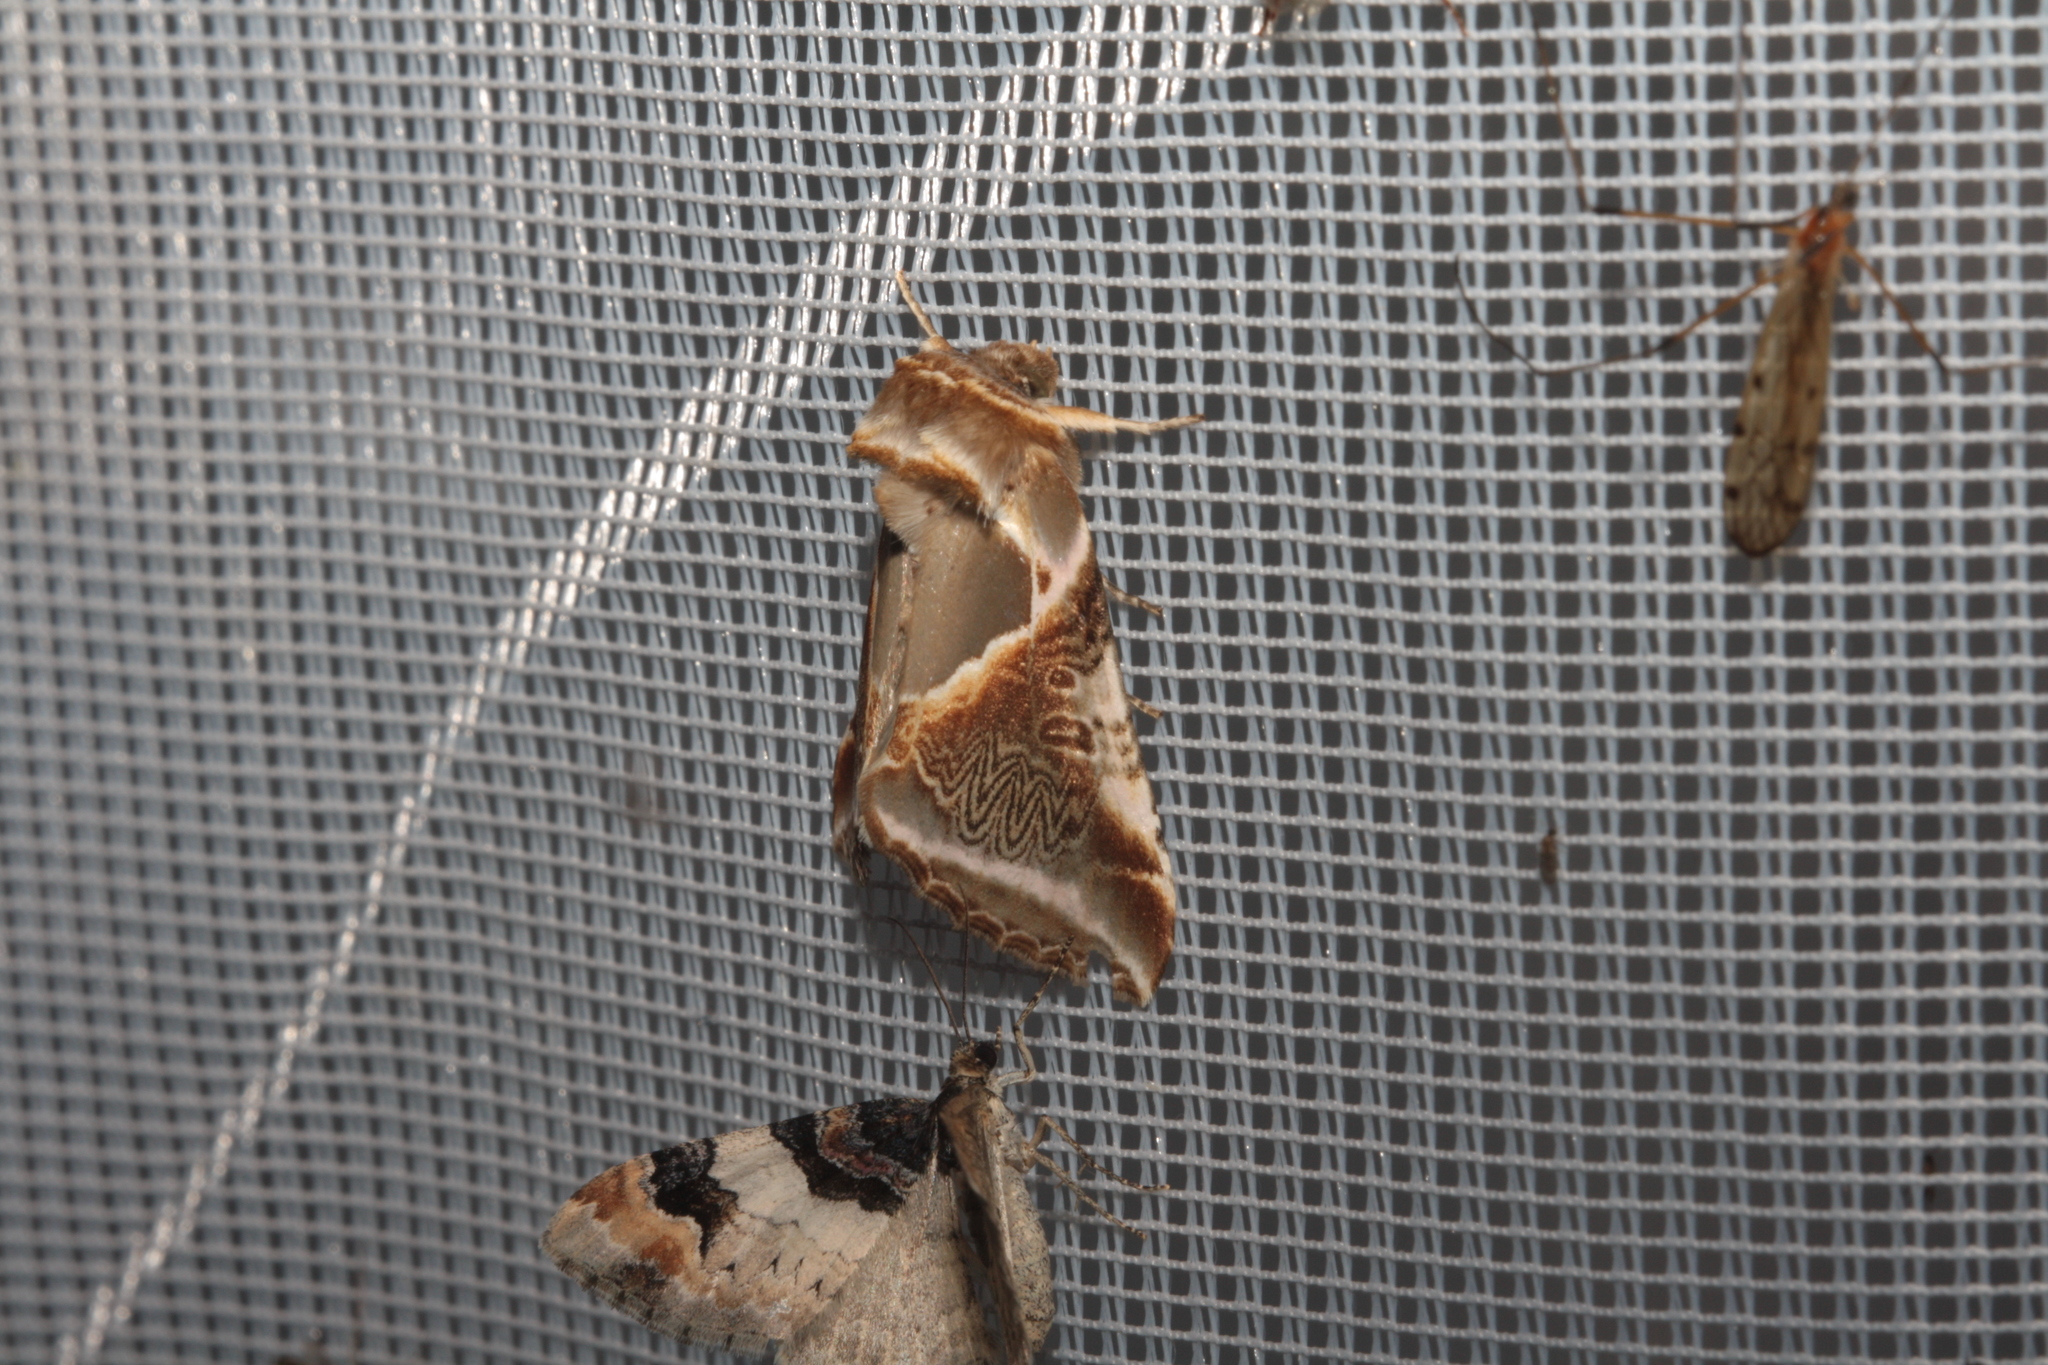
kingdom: Animalia
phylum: Arthropoda
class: Insecta
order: Lepidoptera
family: Drepanidae
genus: Habrosyne
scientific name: Habrosyne pyritoides
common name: Buff arches
